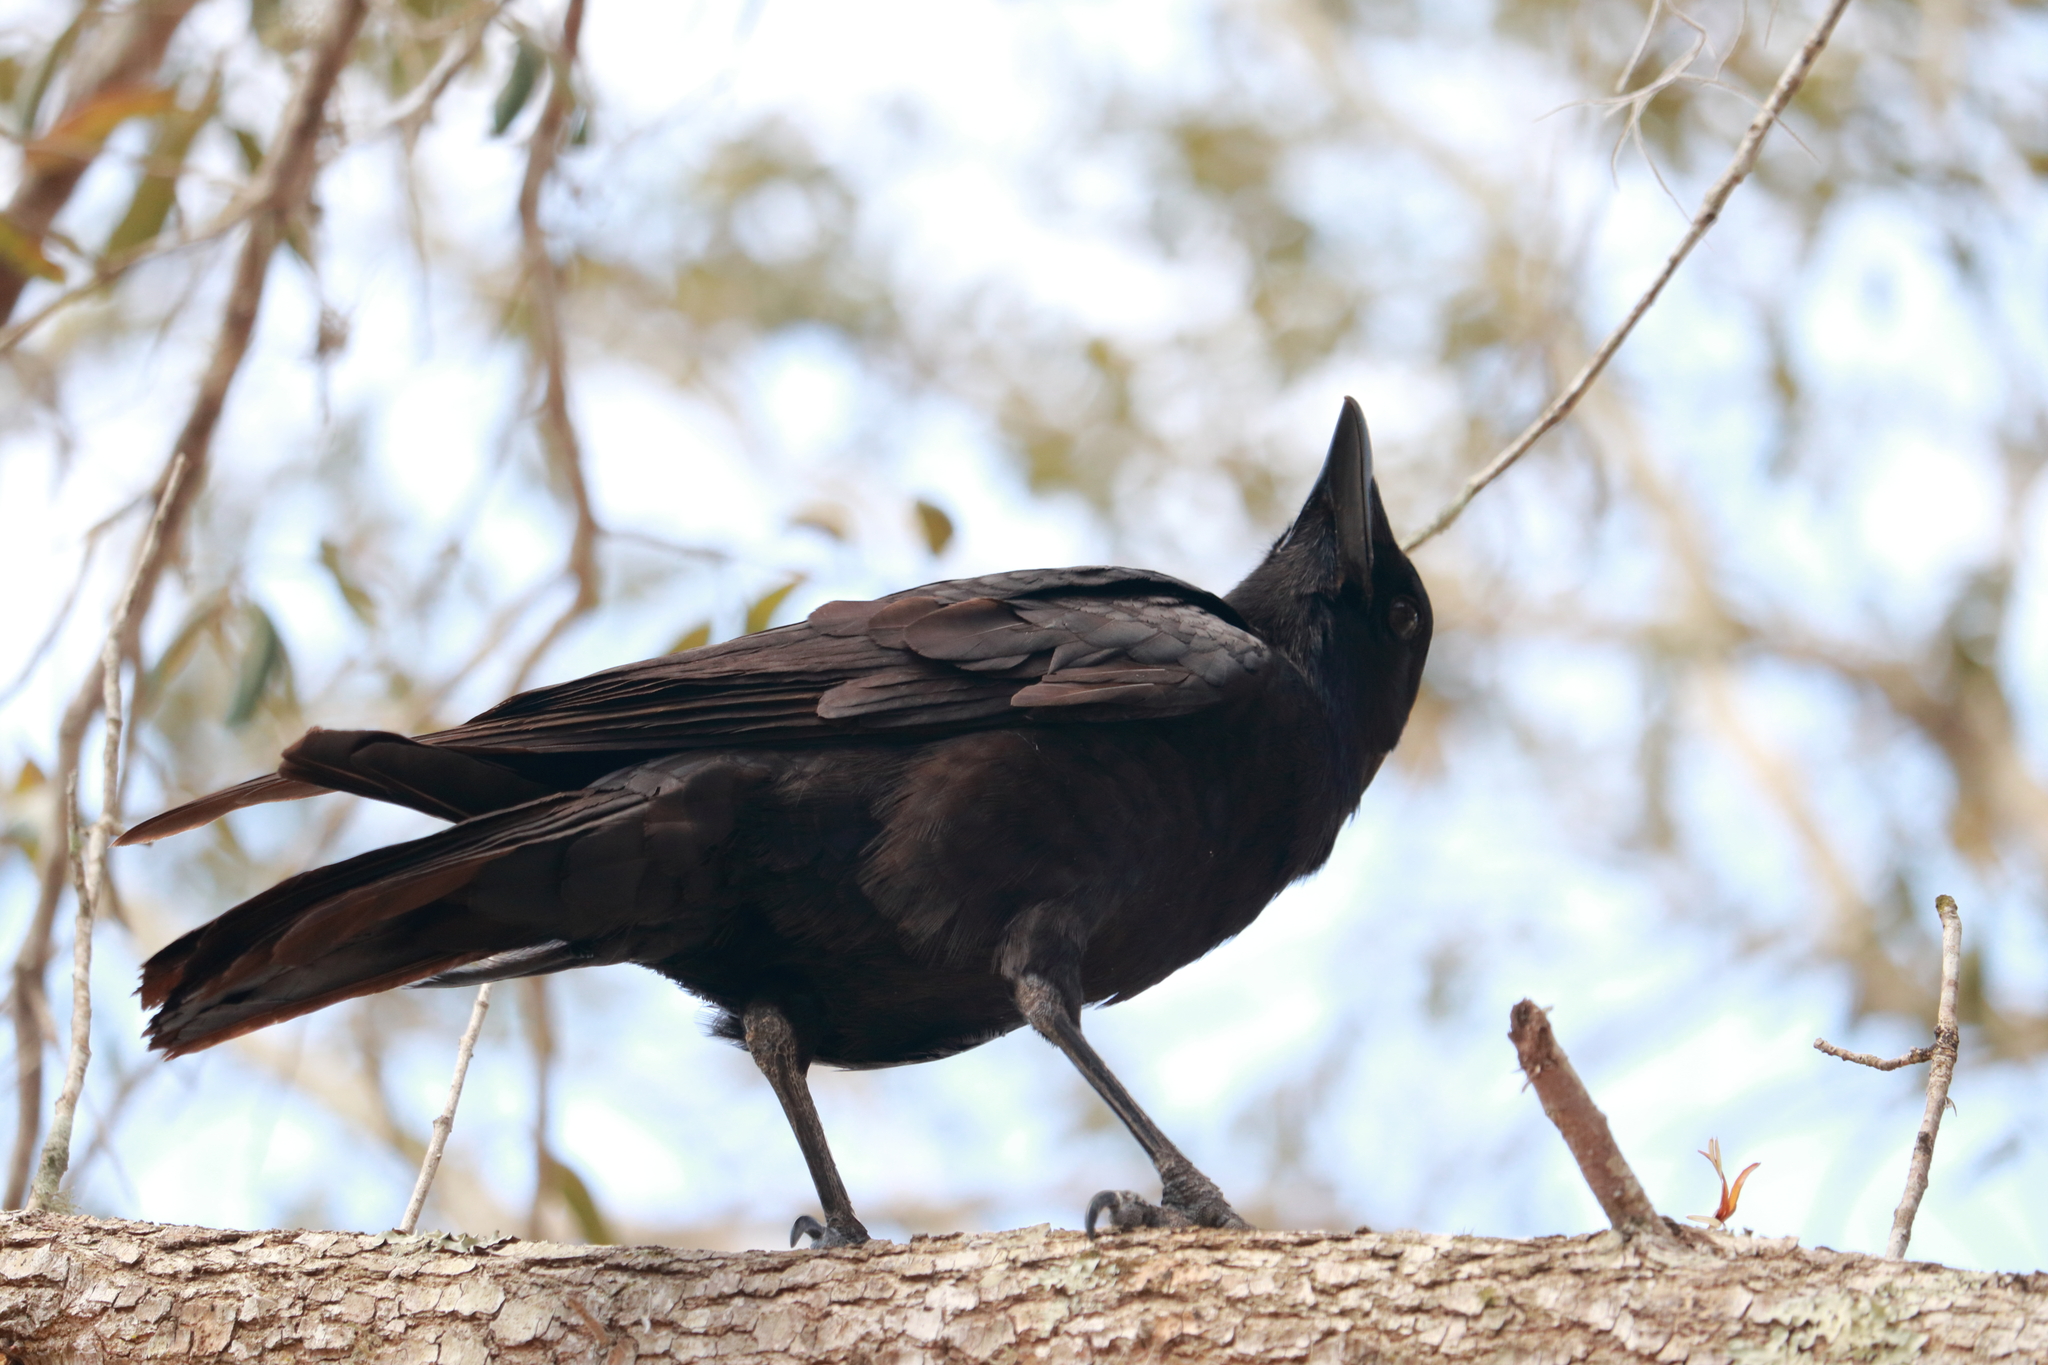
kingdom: Animalia
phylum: Chordata
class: Aves
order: Passeriformes
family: Corvidae
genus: Corvus
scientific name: Corvus brachyrhynchos
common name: American crow
